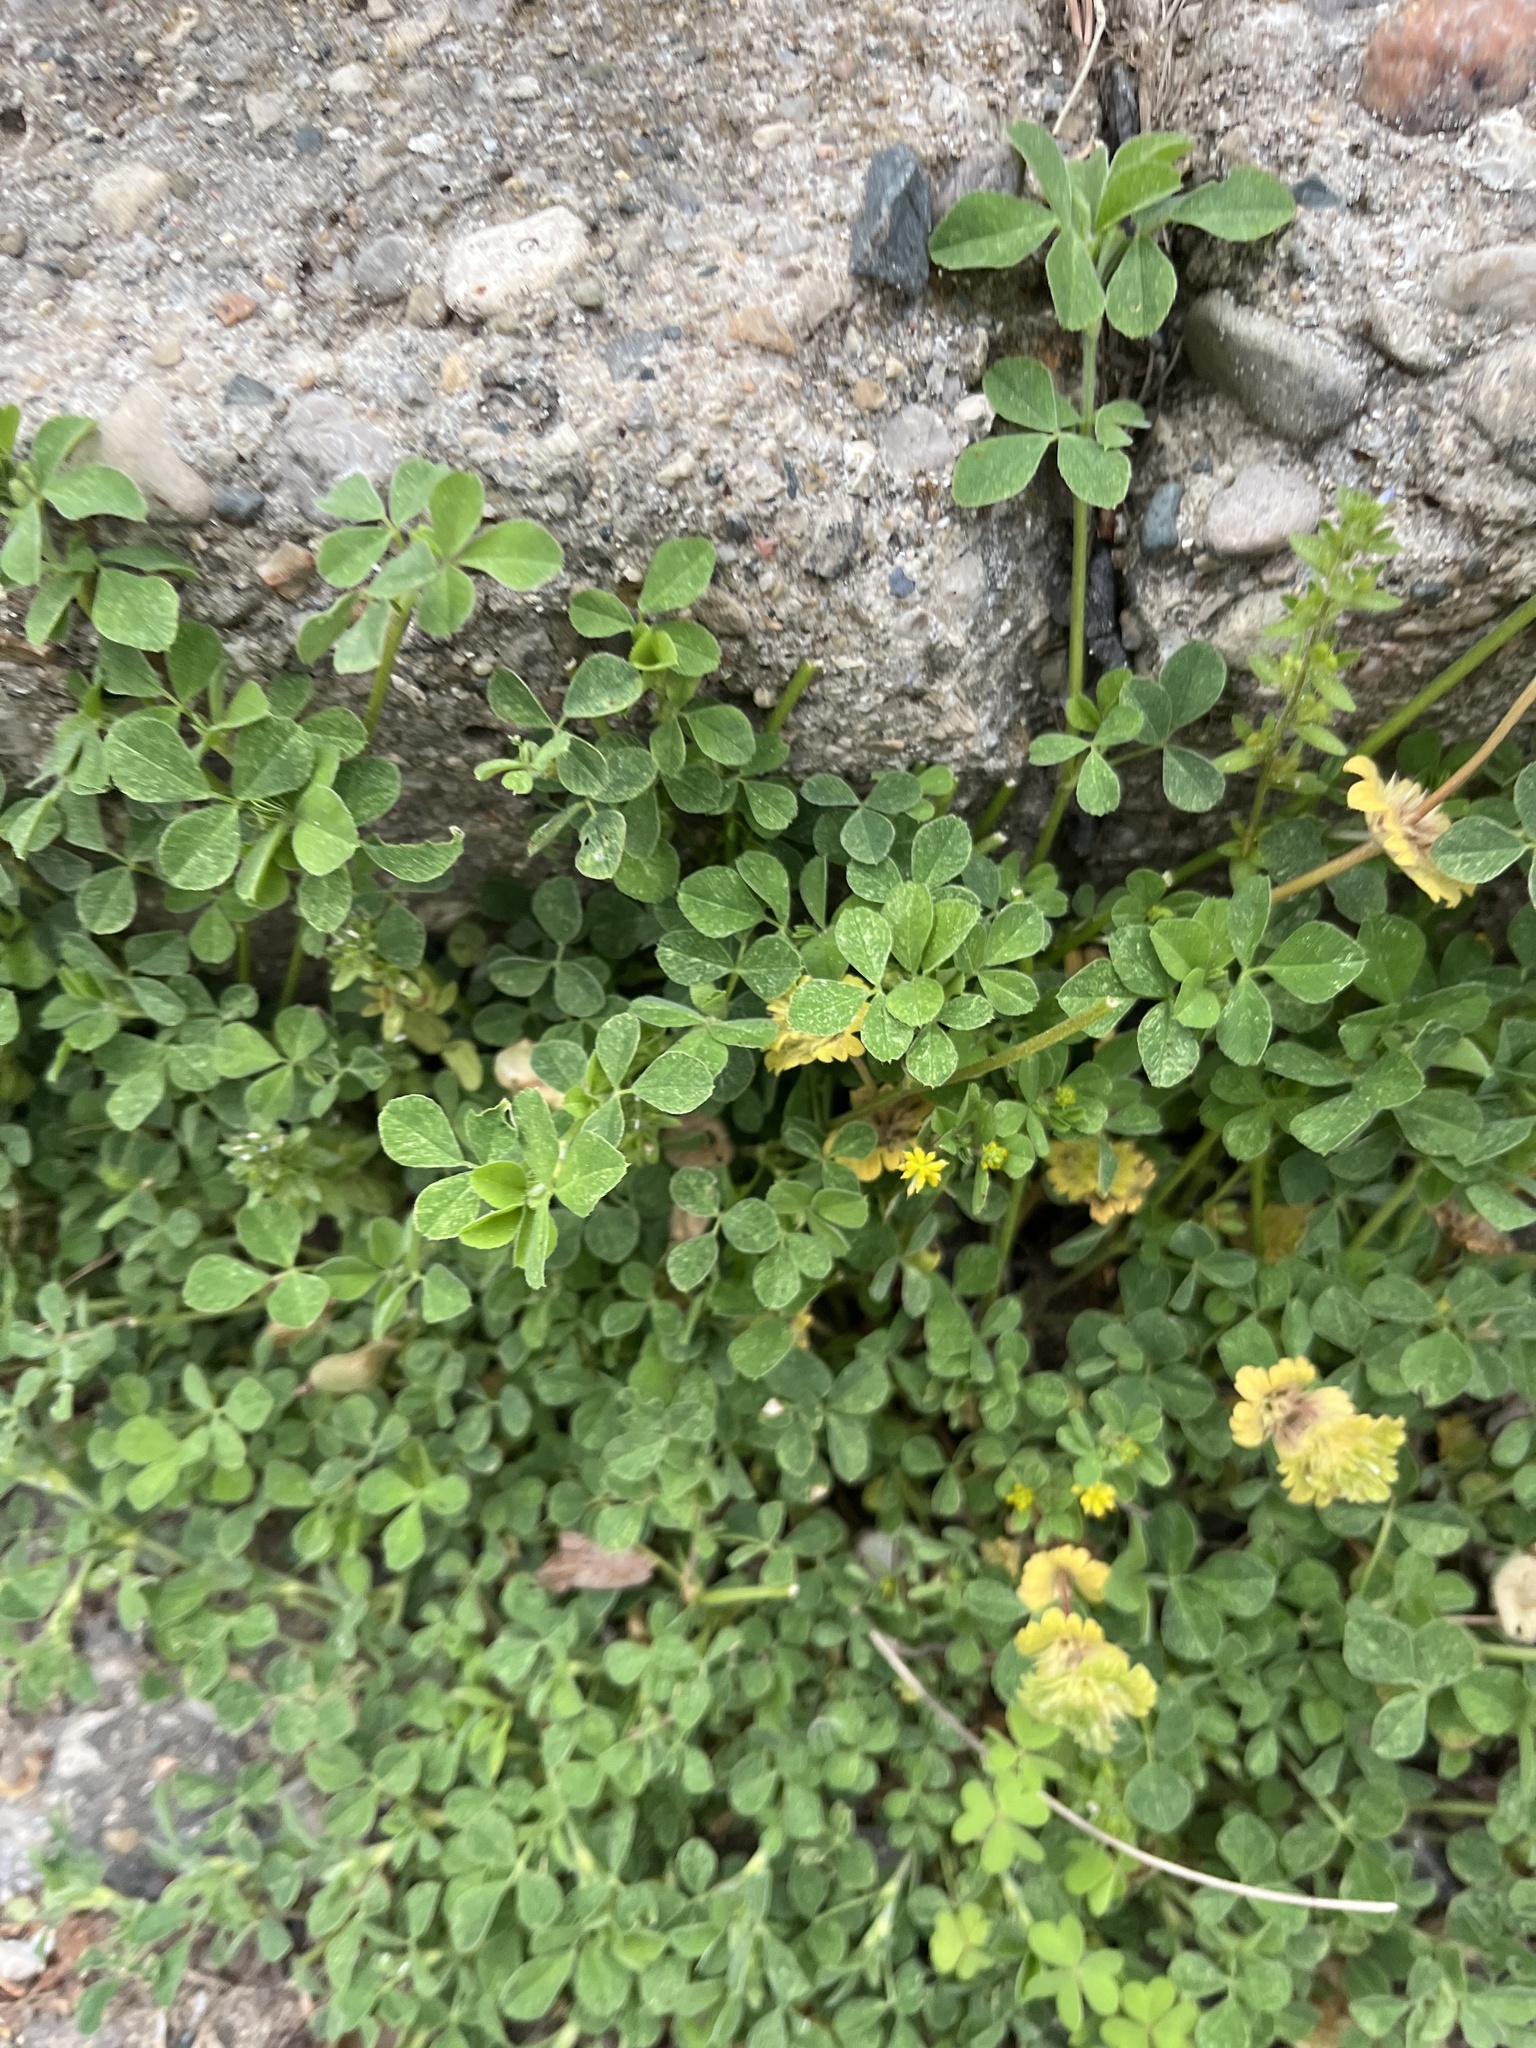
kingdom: Plantae
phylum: Tracheophyta
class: Magnoliopsida
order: Fabales
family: Fabaceae
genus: Medicago
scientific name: Medicago lupulina
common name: Black medick
